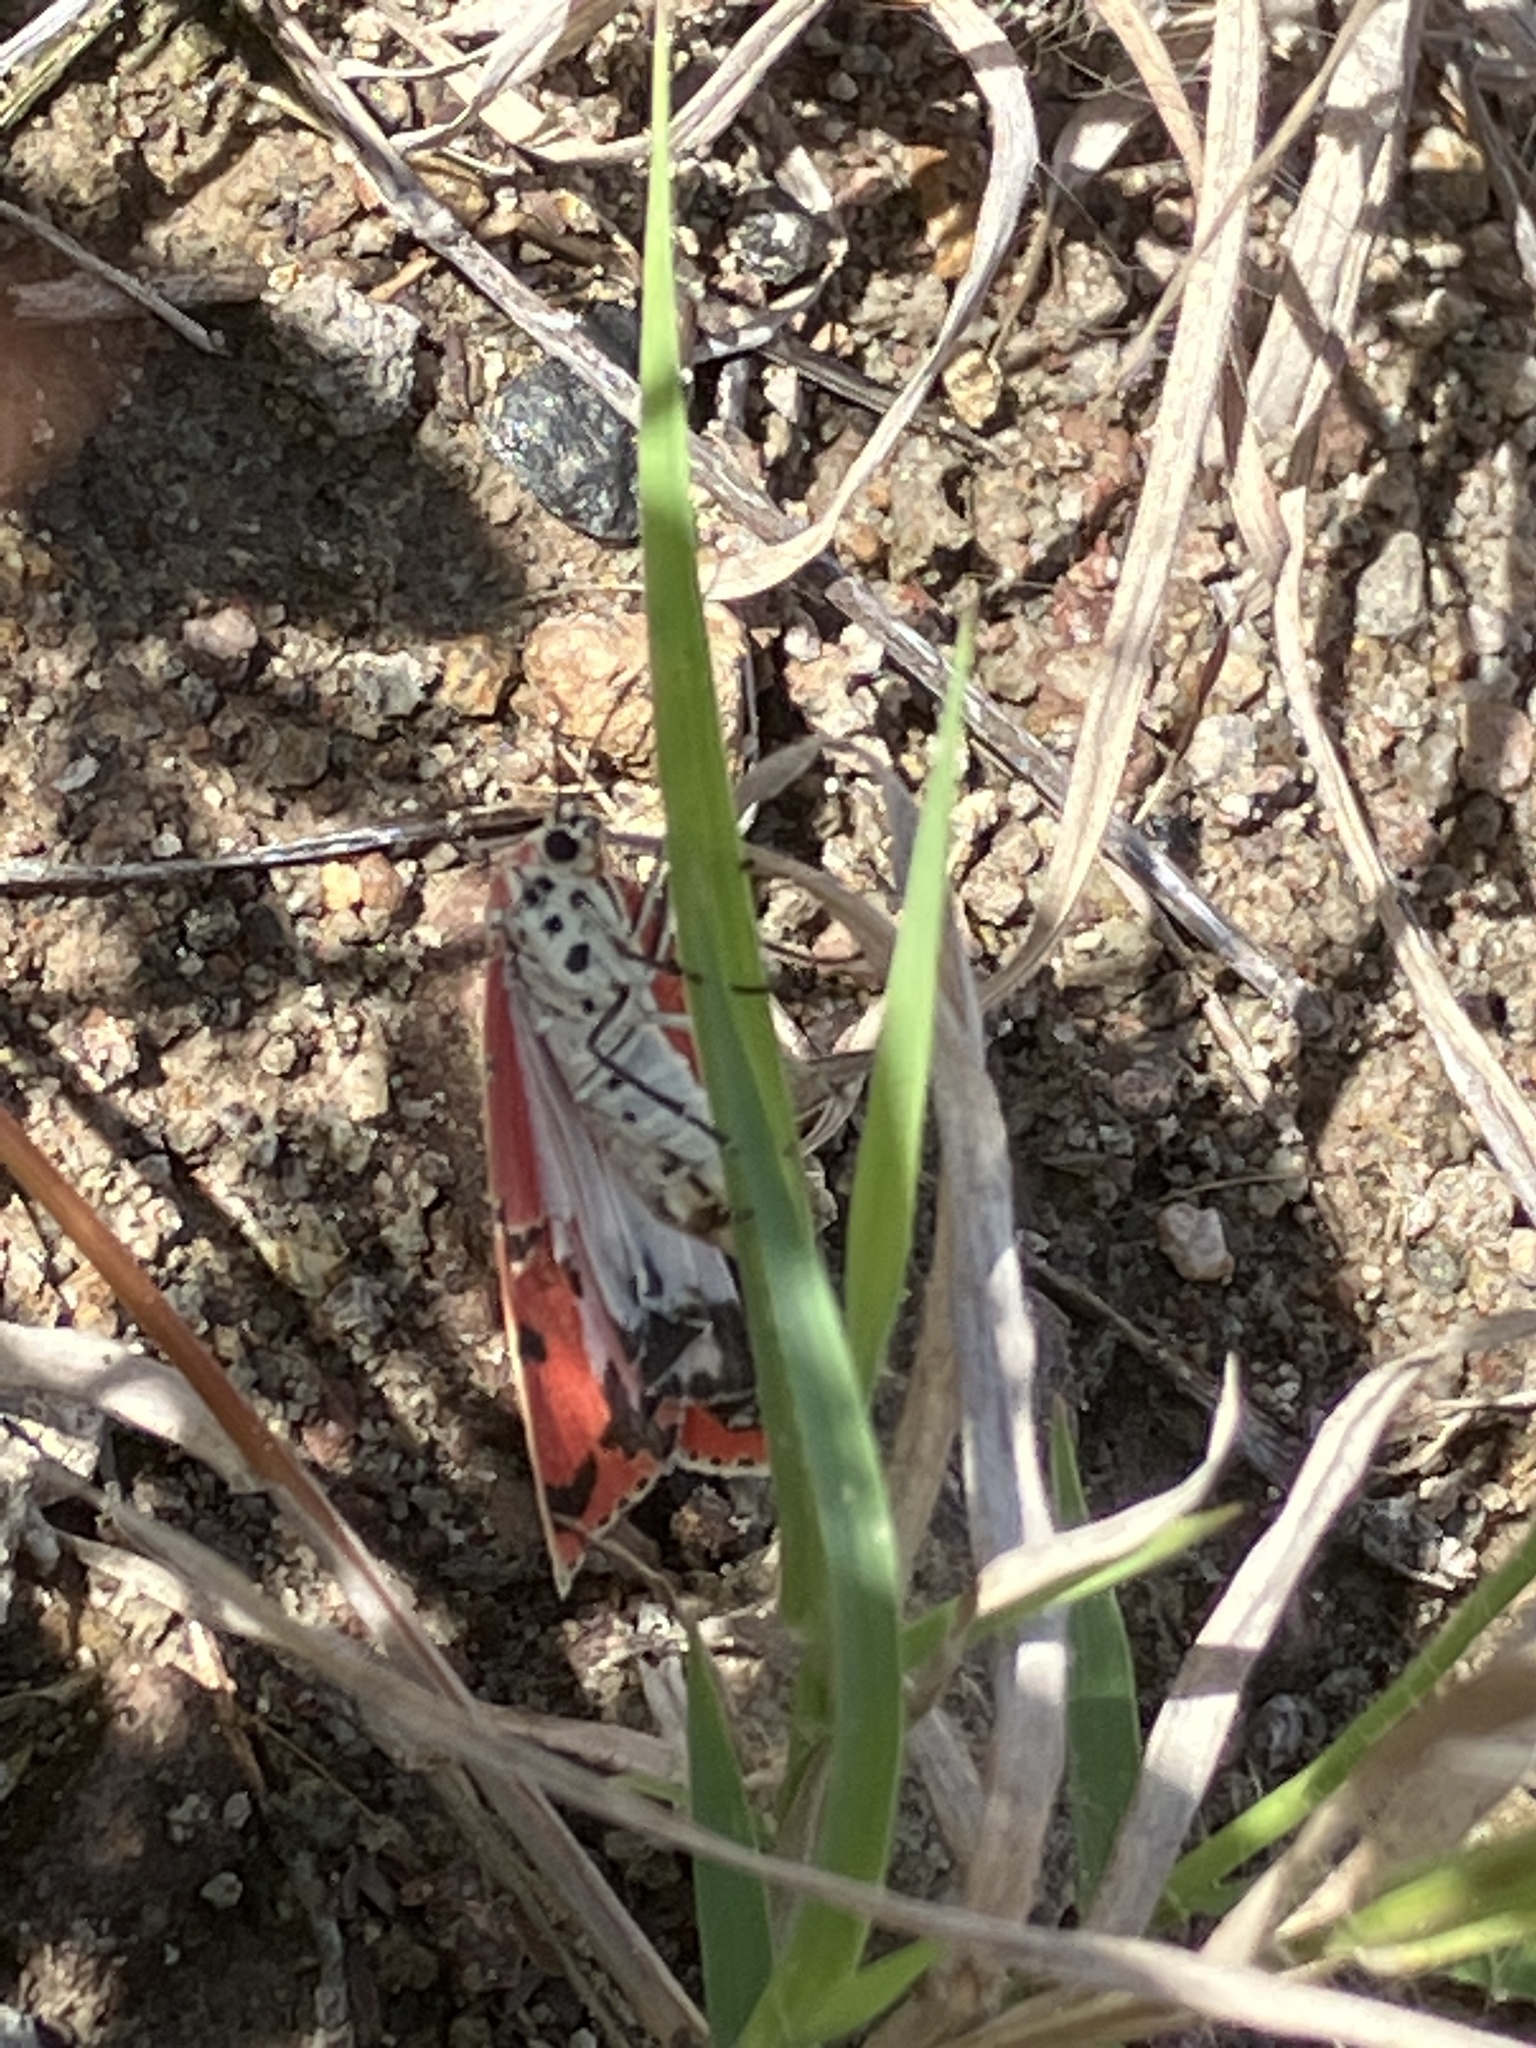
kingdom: Animalia
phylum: Arthropoda
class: Insecta
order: Lepidoptera
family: Erebidae
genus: Utetheisa
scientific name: Utetheisa ornatrix
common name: Beautiful utetheisa
